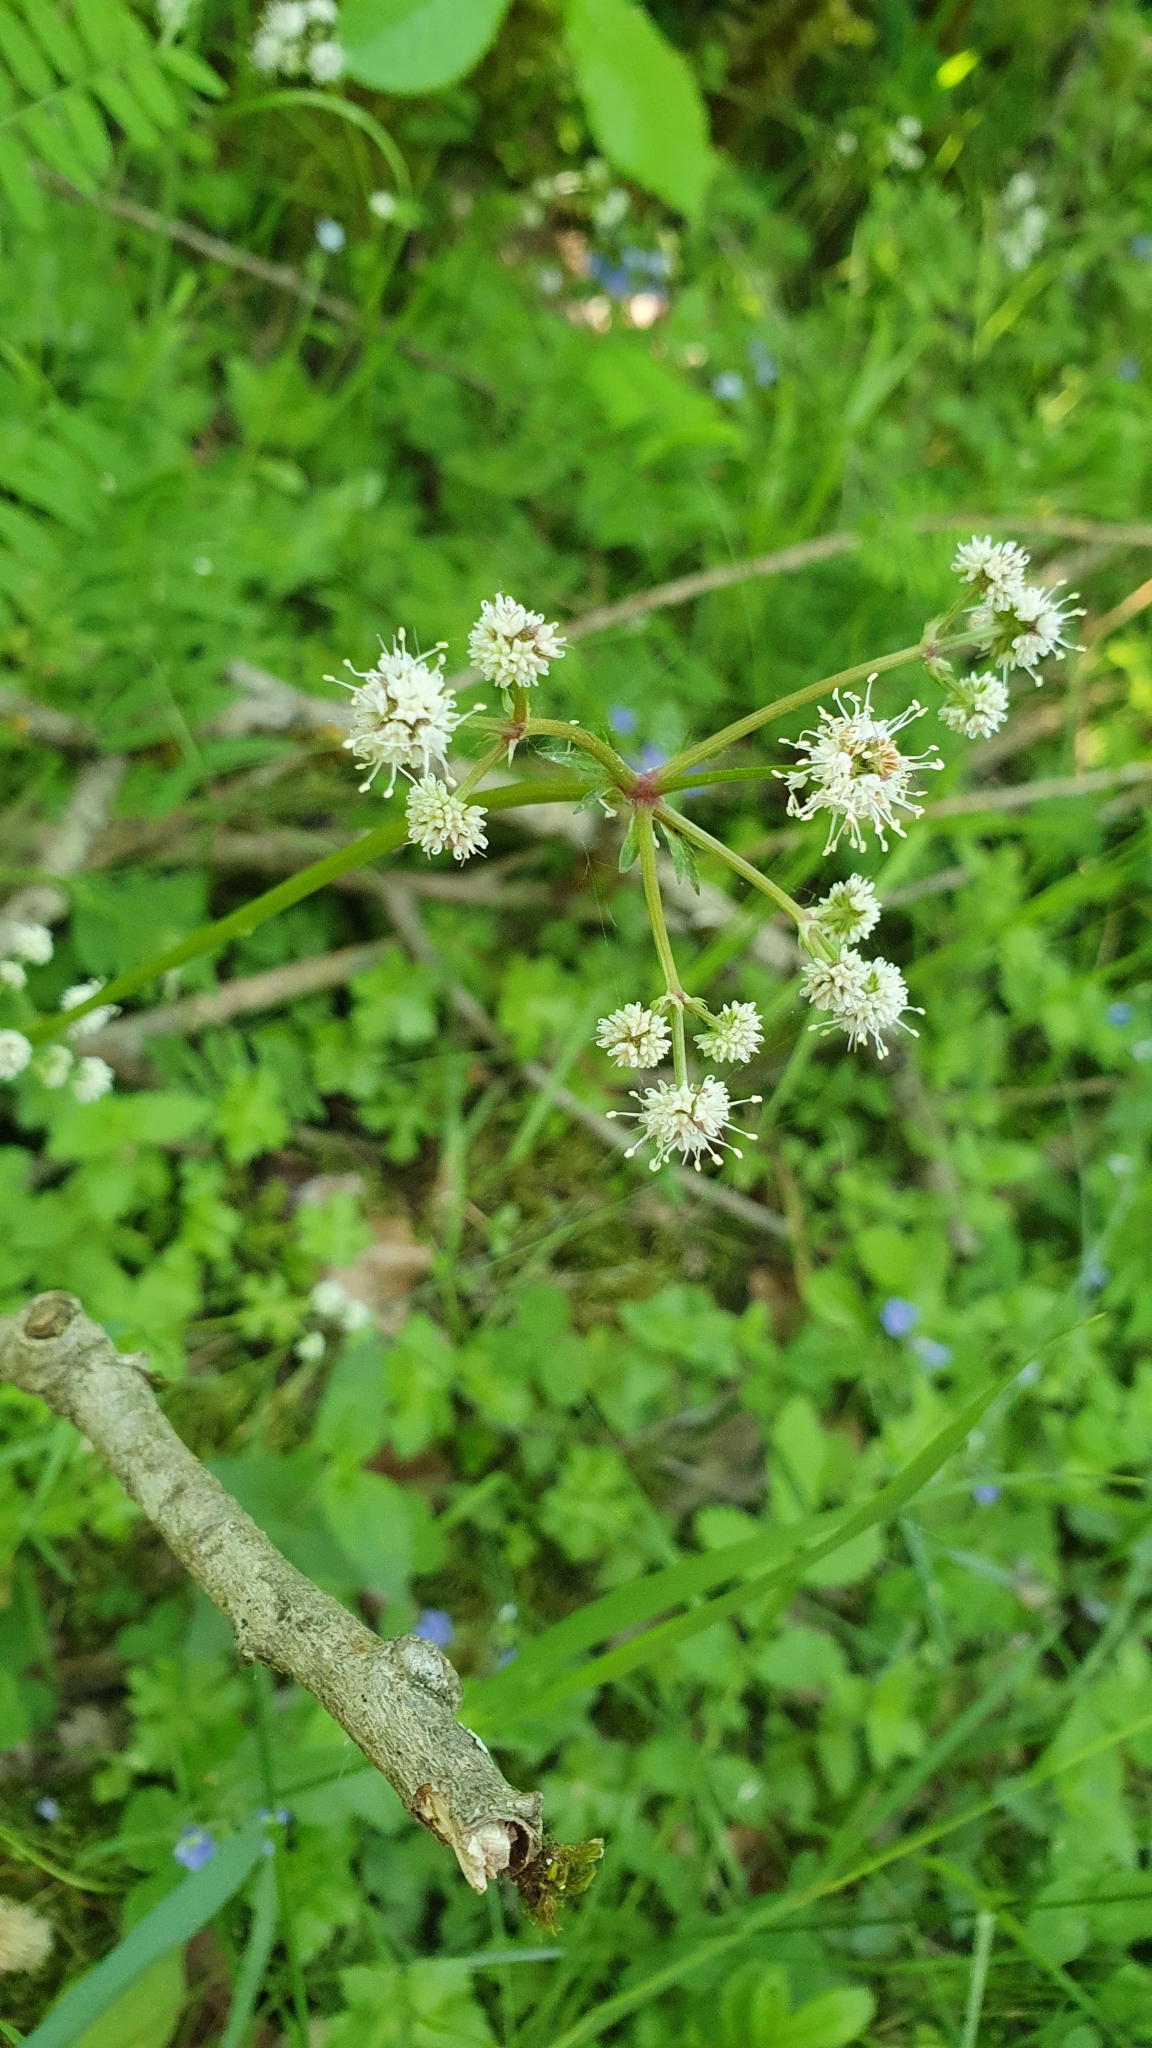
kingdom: Plantae
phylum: Tracheophyta
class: Magnoliopsida
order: Apiales
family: Apiaceae
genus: Sanicula
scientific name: Sanicula europaea
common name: Sanicle
